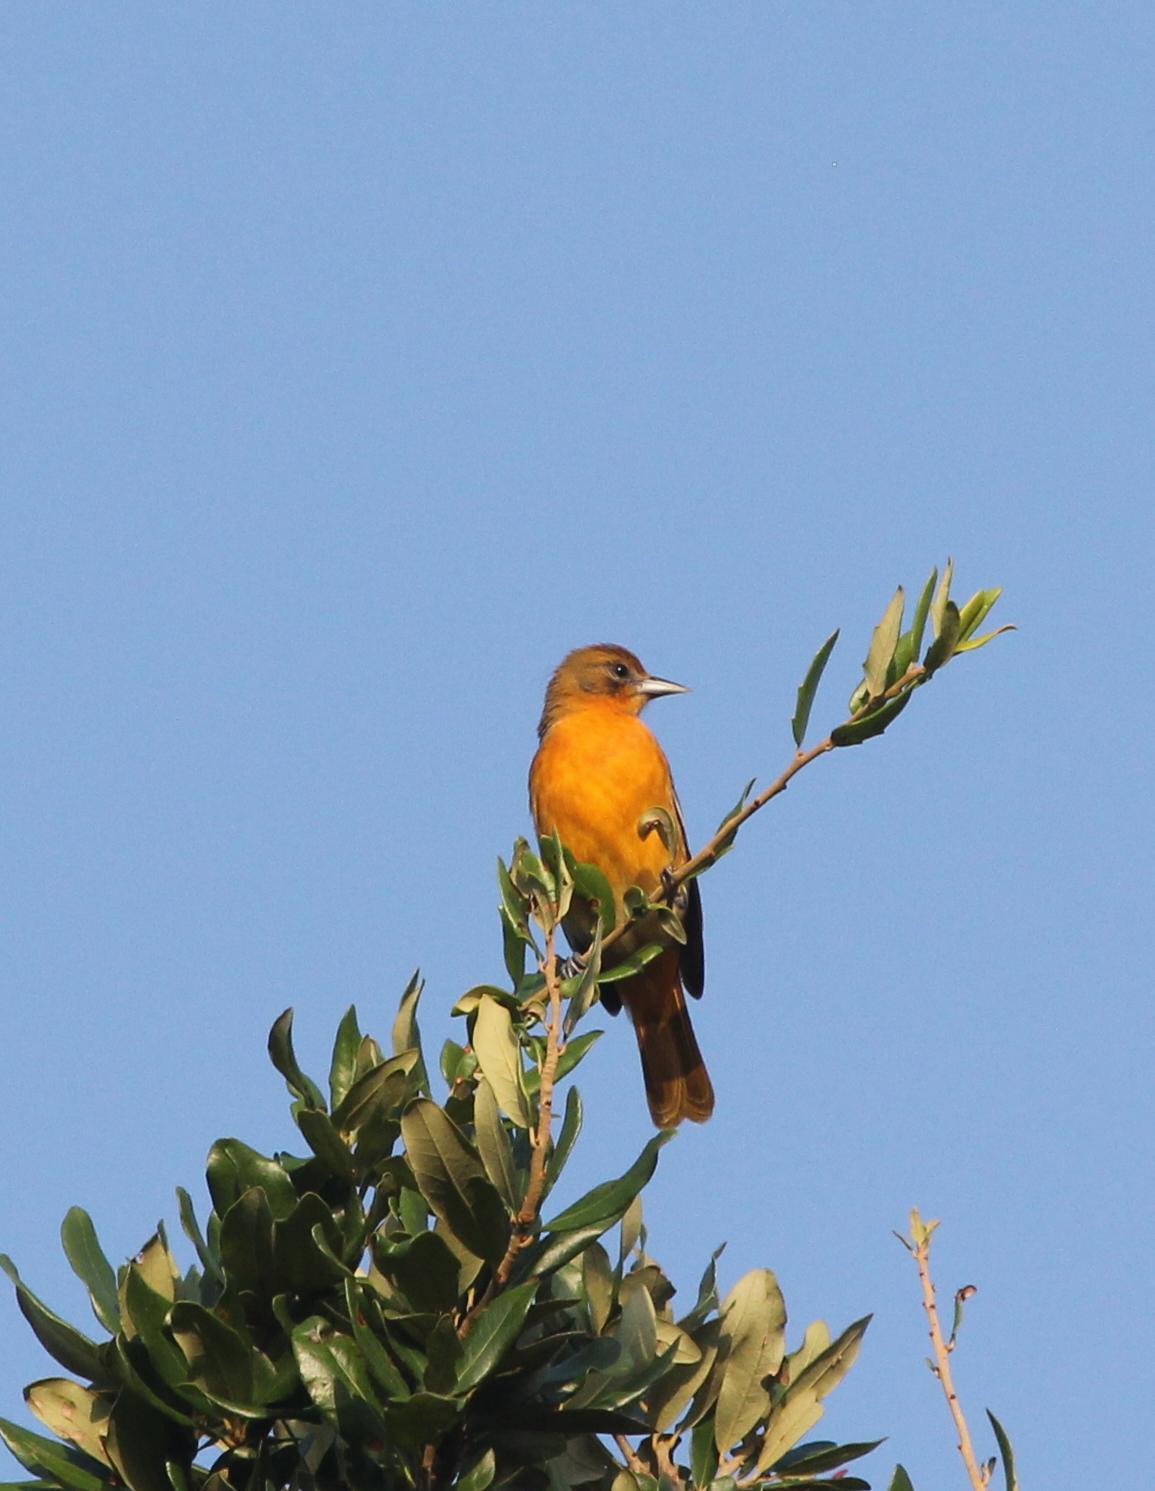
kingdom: Animalia
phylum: Chordata
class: Aves
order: Passeriformes
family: Icteridae
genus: Icterus
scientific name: Icterus galbula
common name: Baltimore oriole
